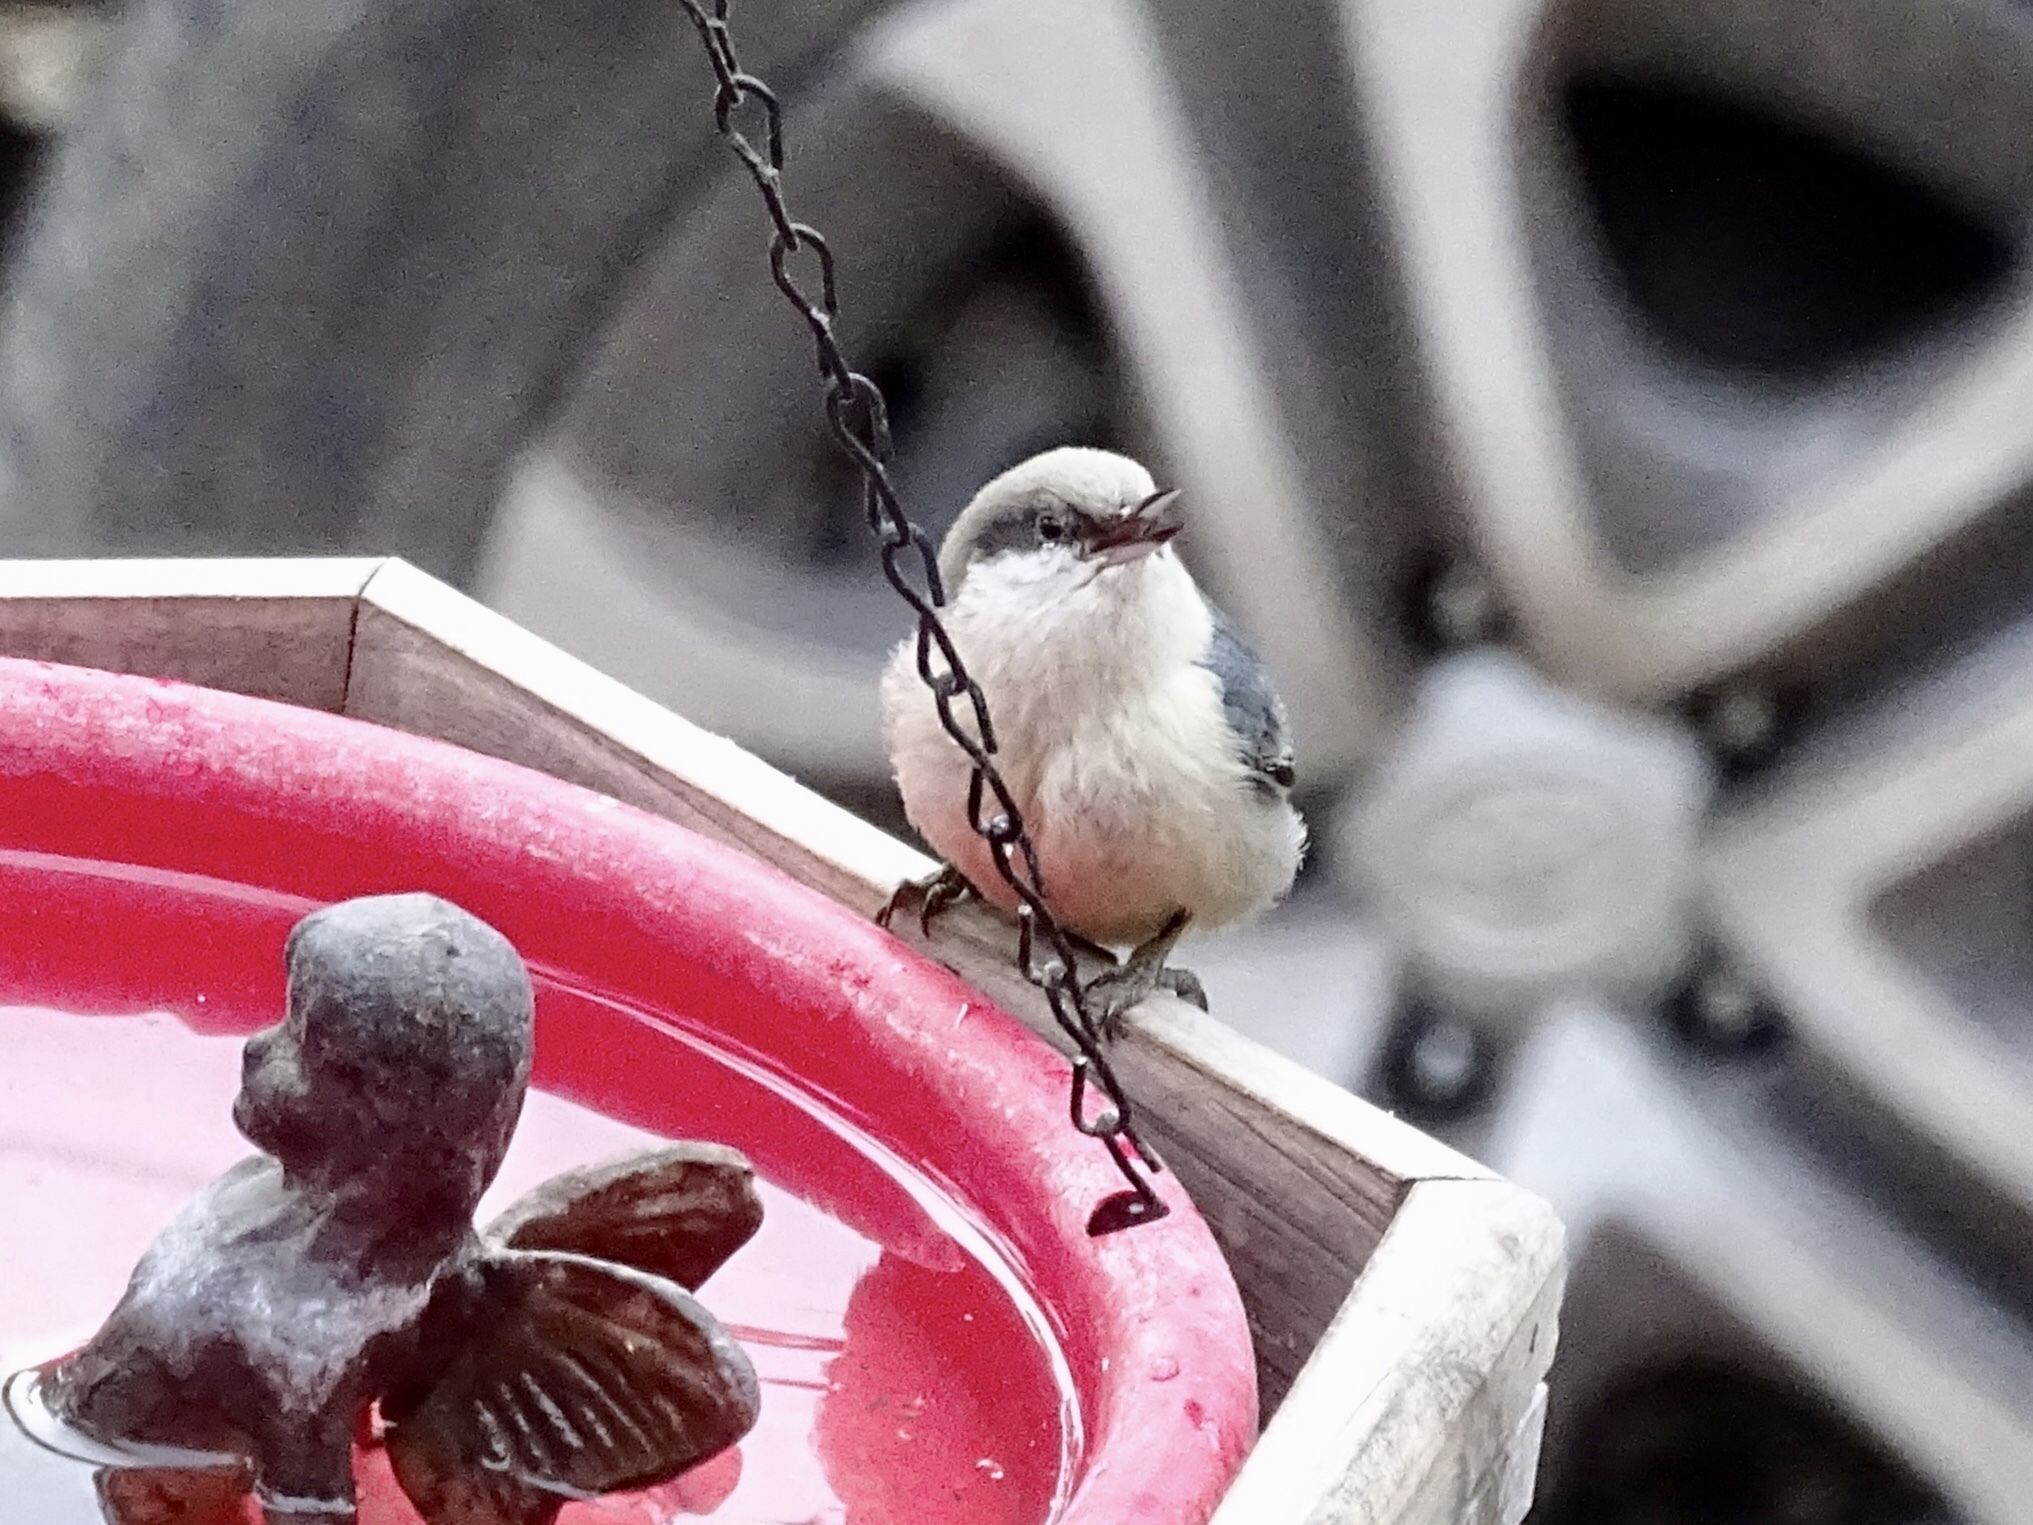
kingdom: Animalia
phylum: Chordata
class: Aves
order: Passeriformes
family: Sittidae
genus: Sitta
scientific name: Sitta pygmaea
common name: Pygmy nuthatch
